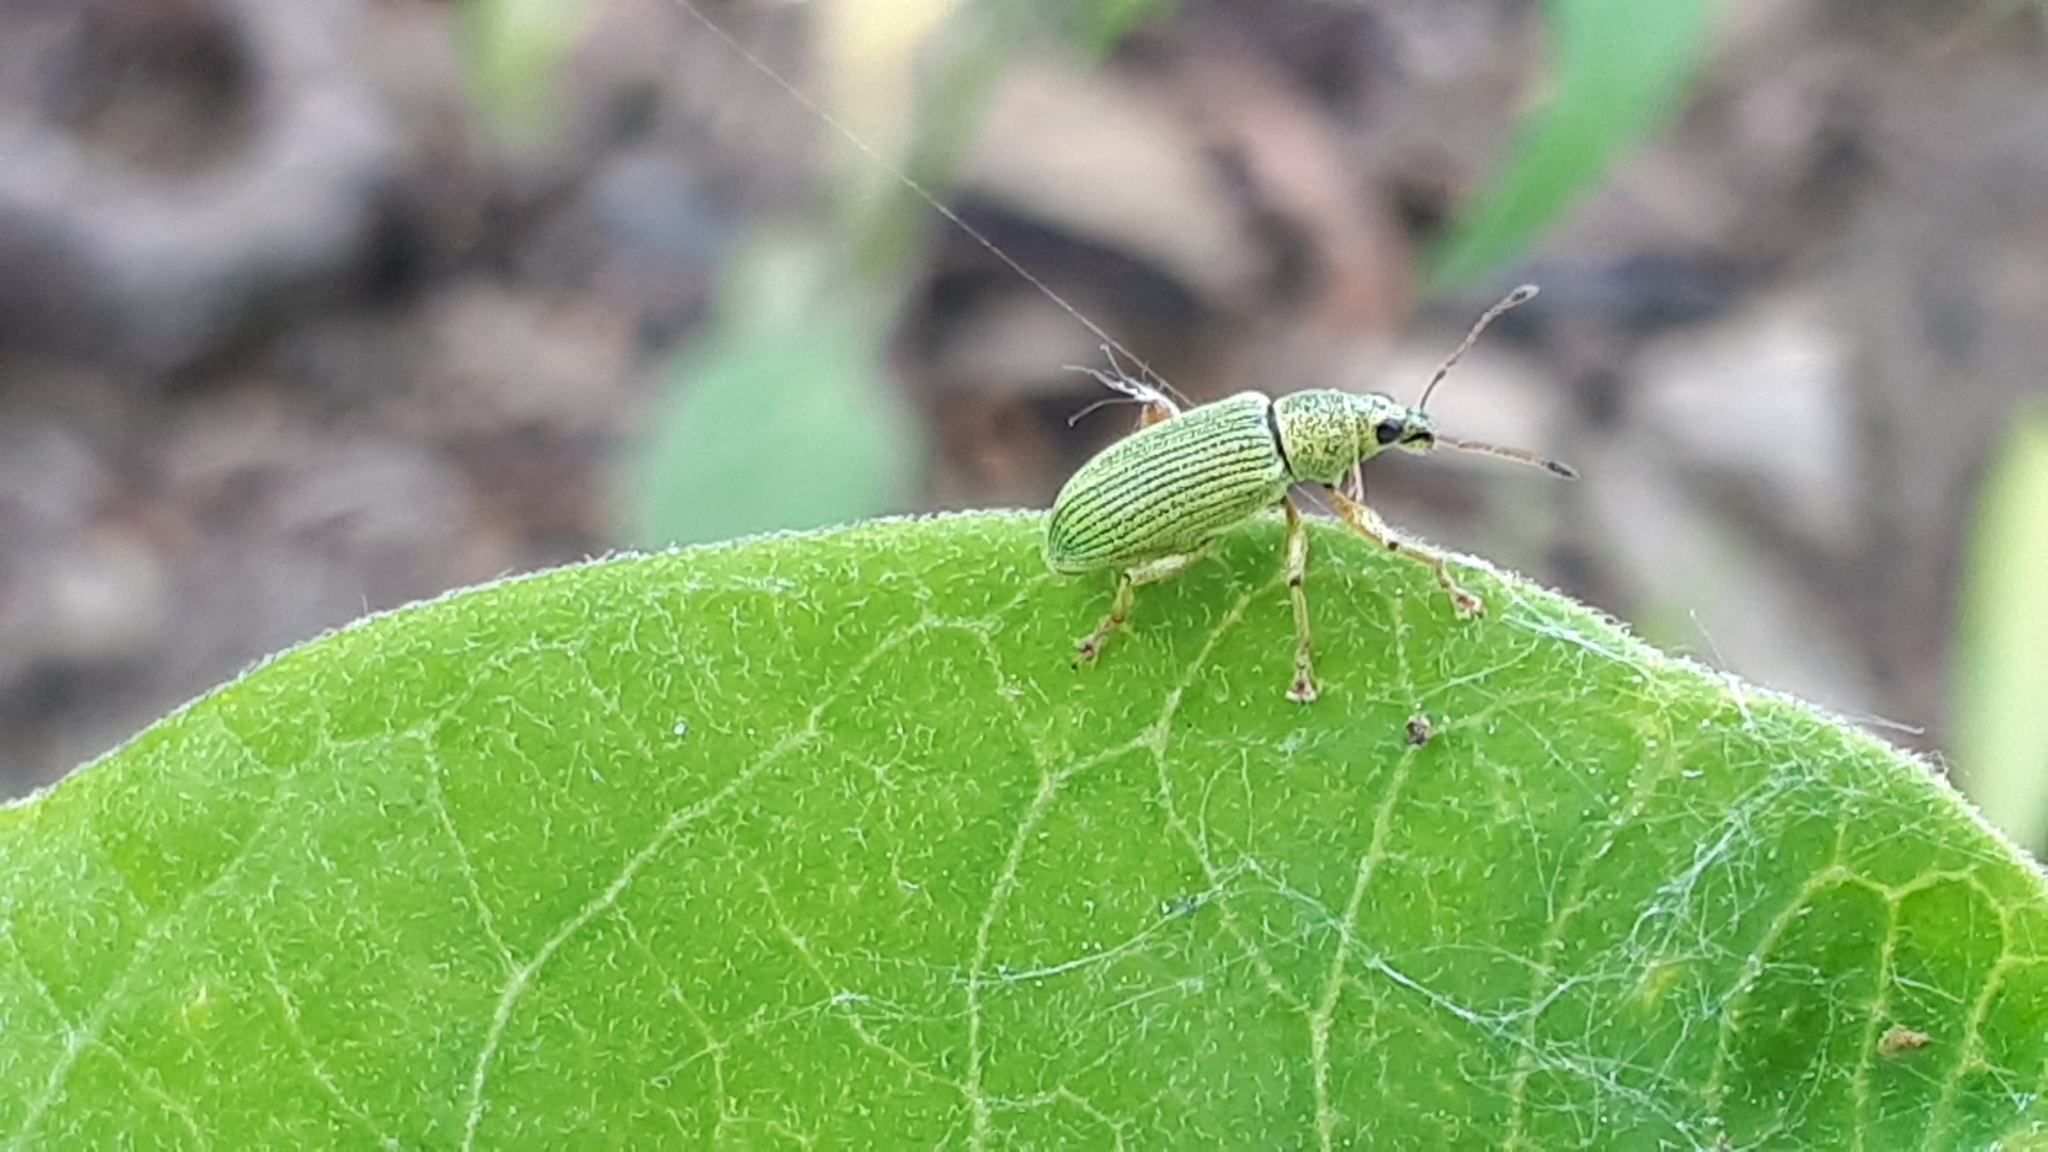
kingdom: Animalia
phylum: Arthropoda
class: Insecta
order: Coleoptera
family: Curculionidae
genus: Polydrusus
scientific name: Polydrusus formosus
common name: Weevil
